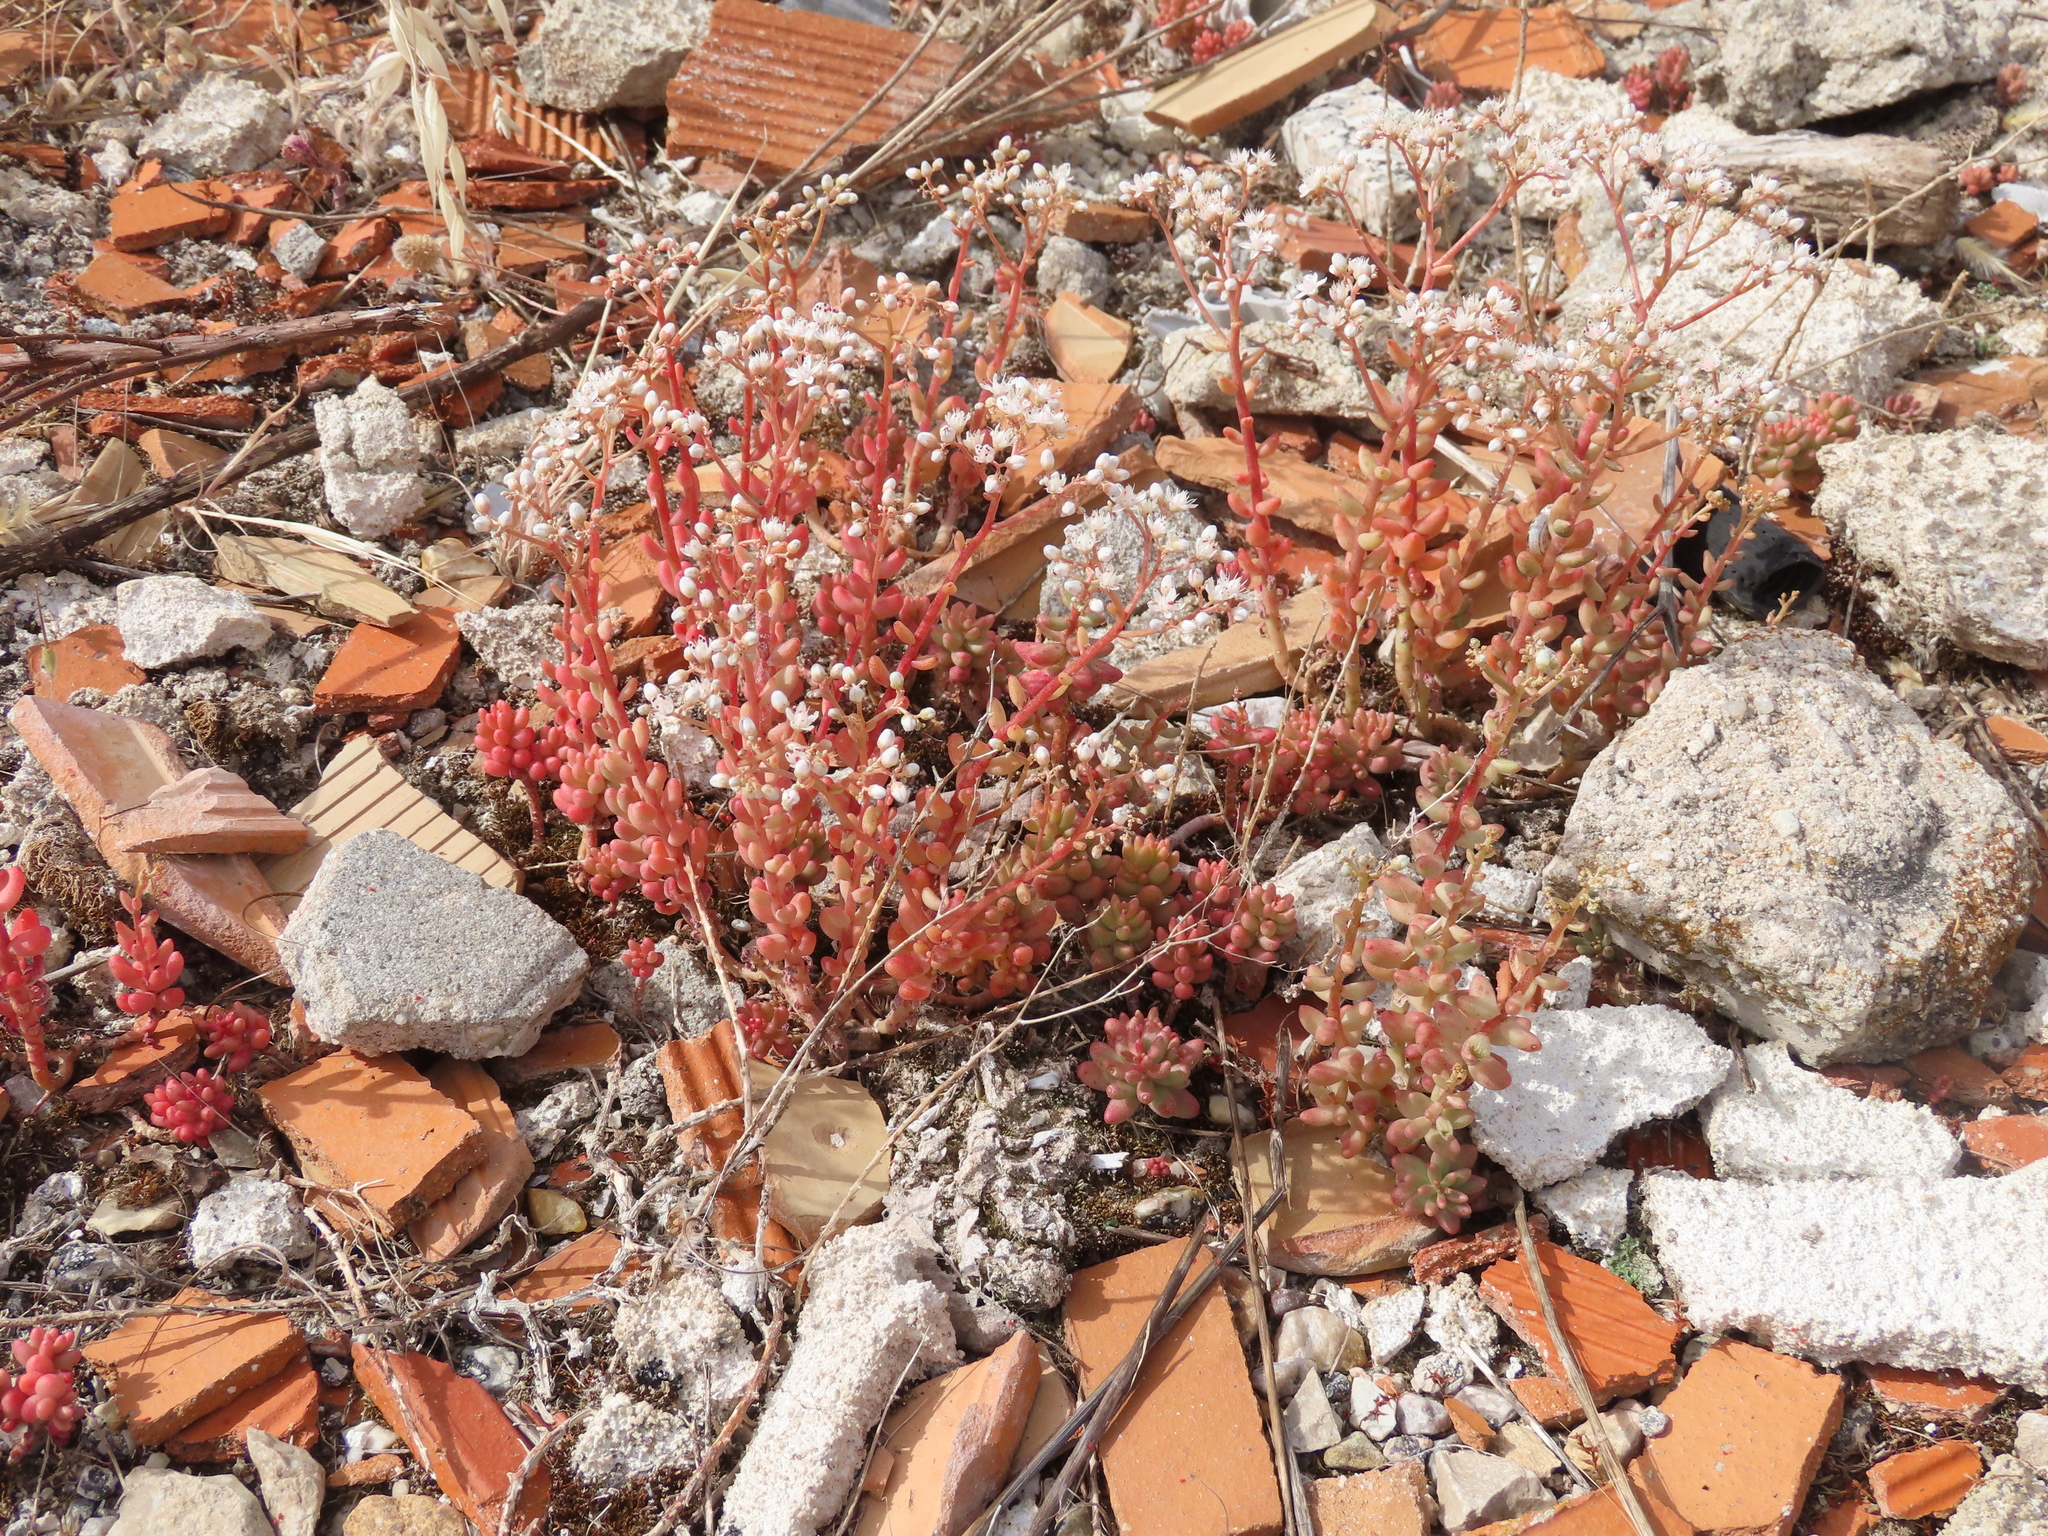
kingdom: Plantae
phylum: Tracheophyta
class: Magnoliopsida
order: Saxifragales
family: Crassulaceae
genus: Sedum
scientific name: Sedum album
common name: White stonecrop
